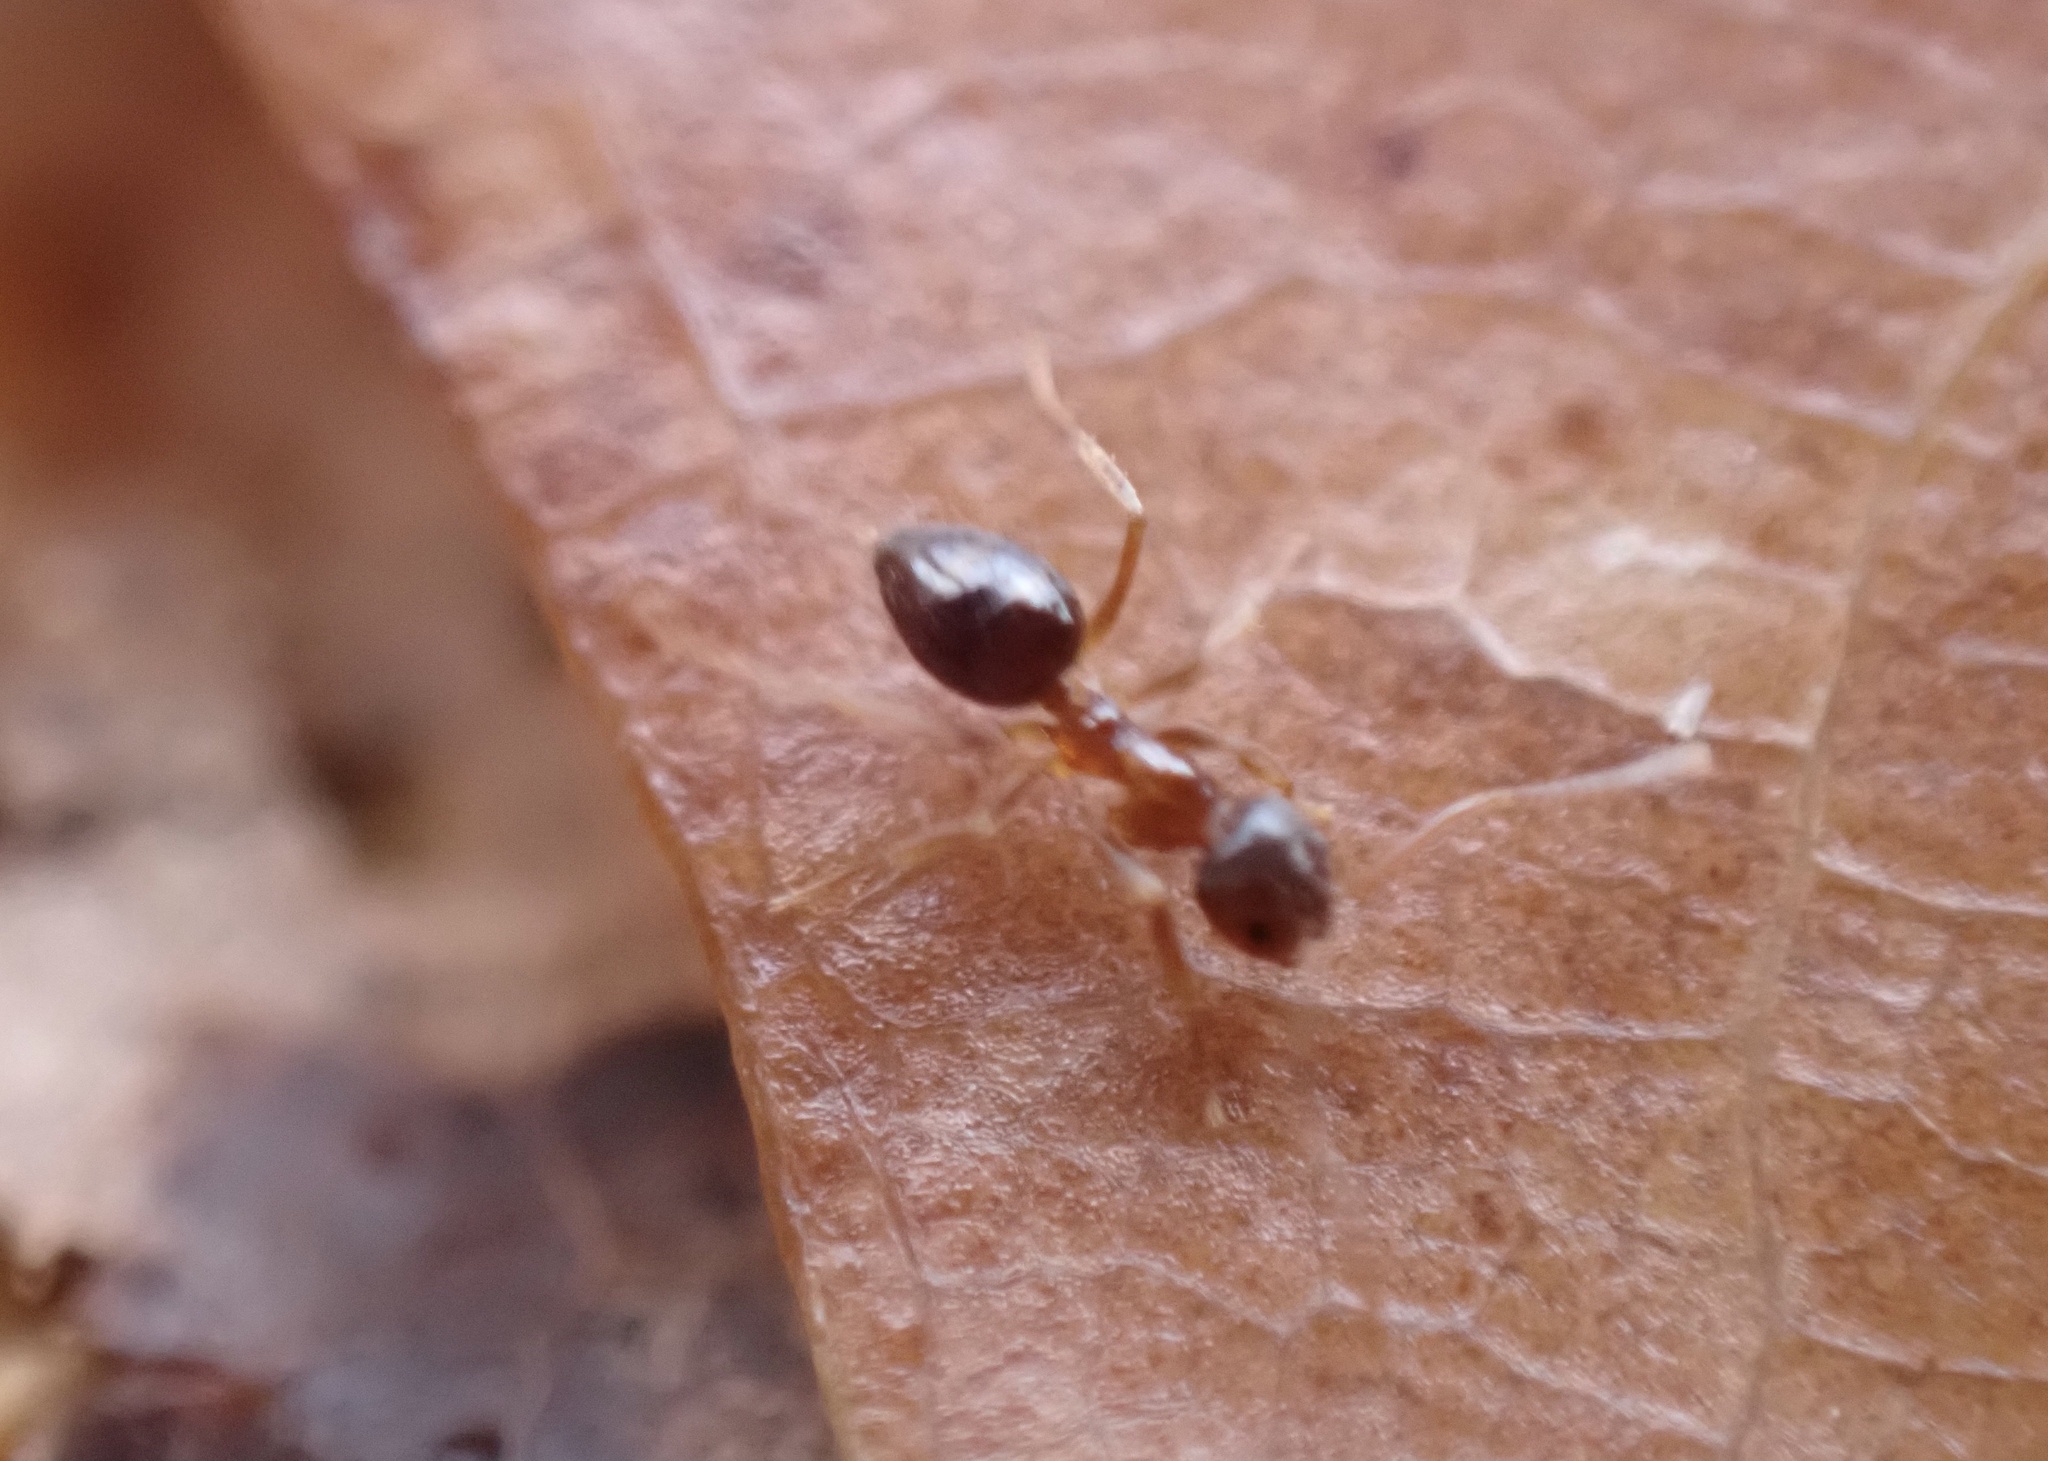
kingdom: Animalia
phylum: Arthropoda
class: Insecta
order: Hymenoptera
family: Formicidae
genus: Paratrechina
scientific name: Paratrechina flavipes
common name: Eastern asian formicine ant
